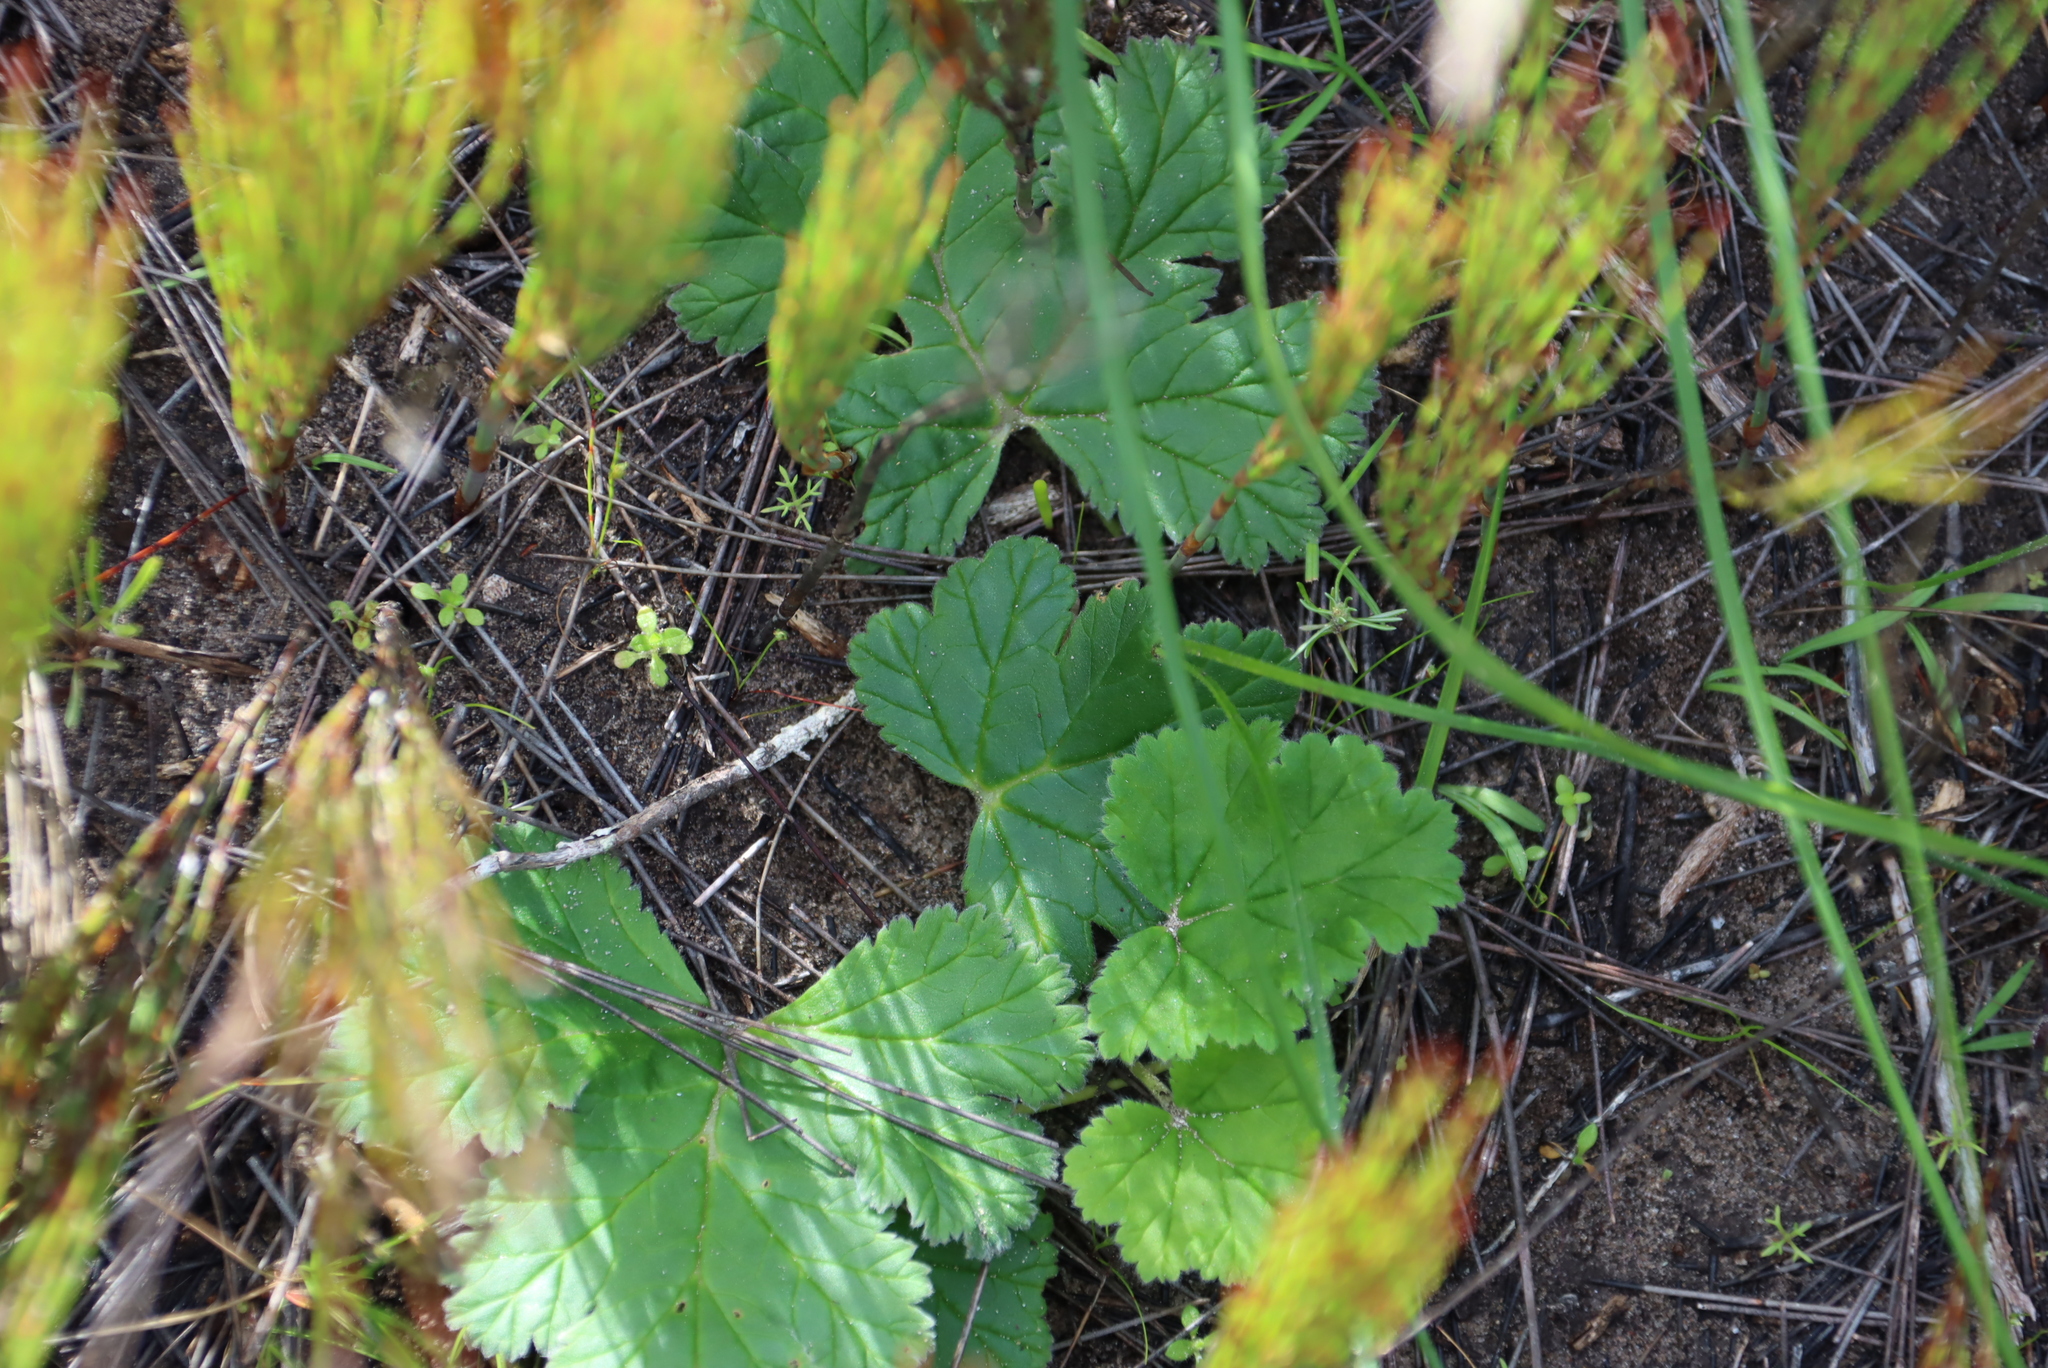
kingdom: Plantae
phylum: Tracheophyta
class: Magnoliopsida
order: Geraniales
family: Geraniaceae
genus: Pelargonium
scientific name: Pelargonium lobatum
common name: Vine-leaf pelargonium
